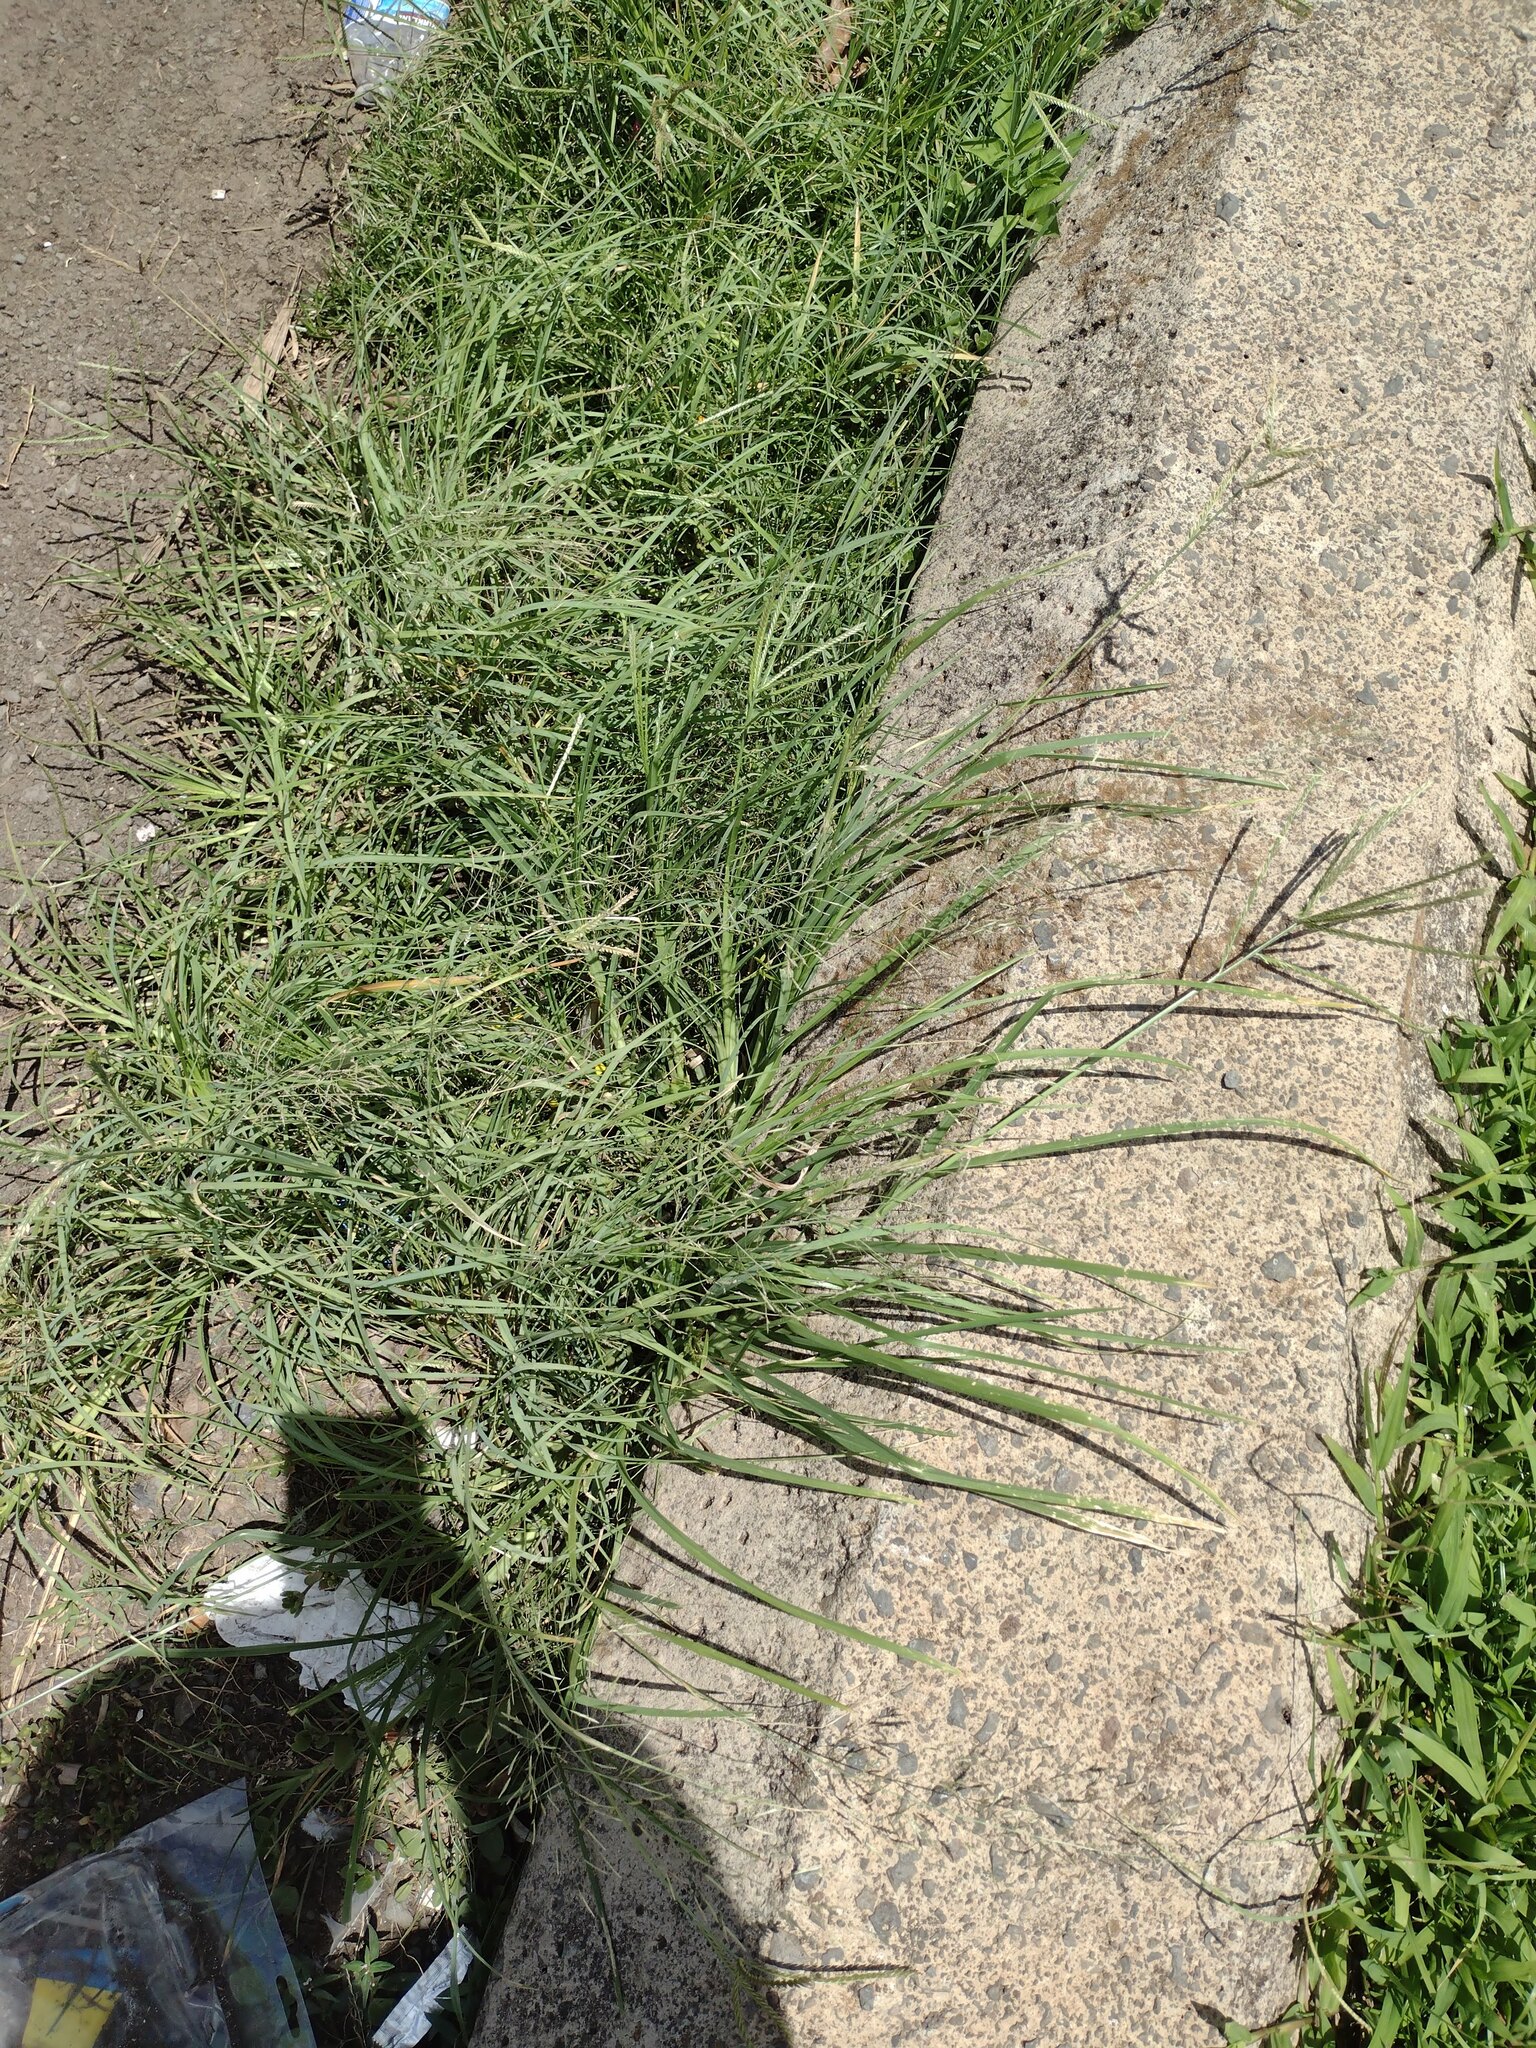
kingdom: Plantae
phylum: Tracheophyta
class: Liliopsida
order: Poales
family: Poaceae
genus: Eleusine
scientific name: Eleusine indica
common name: Yard-grass
